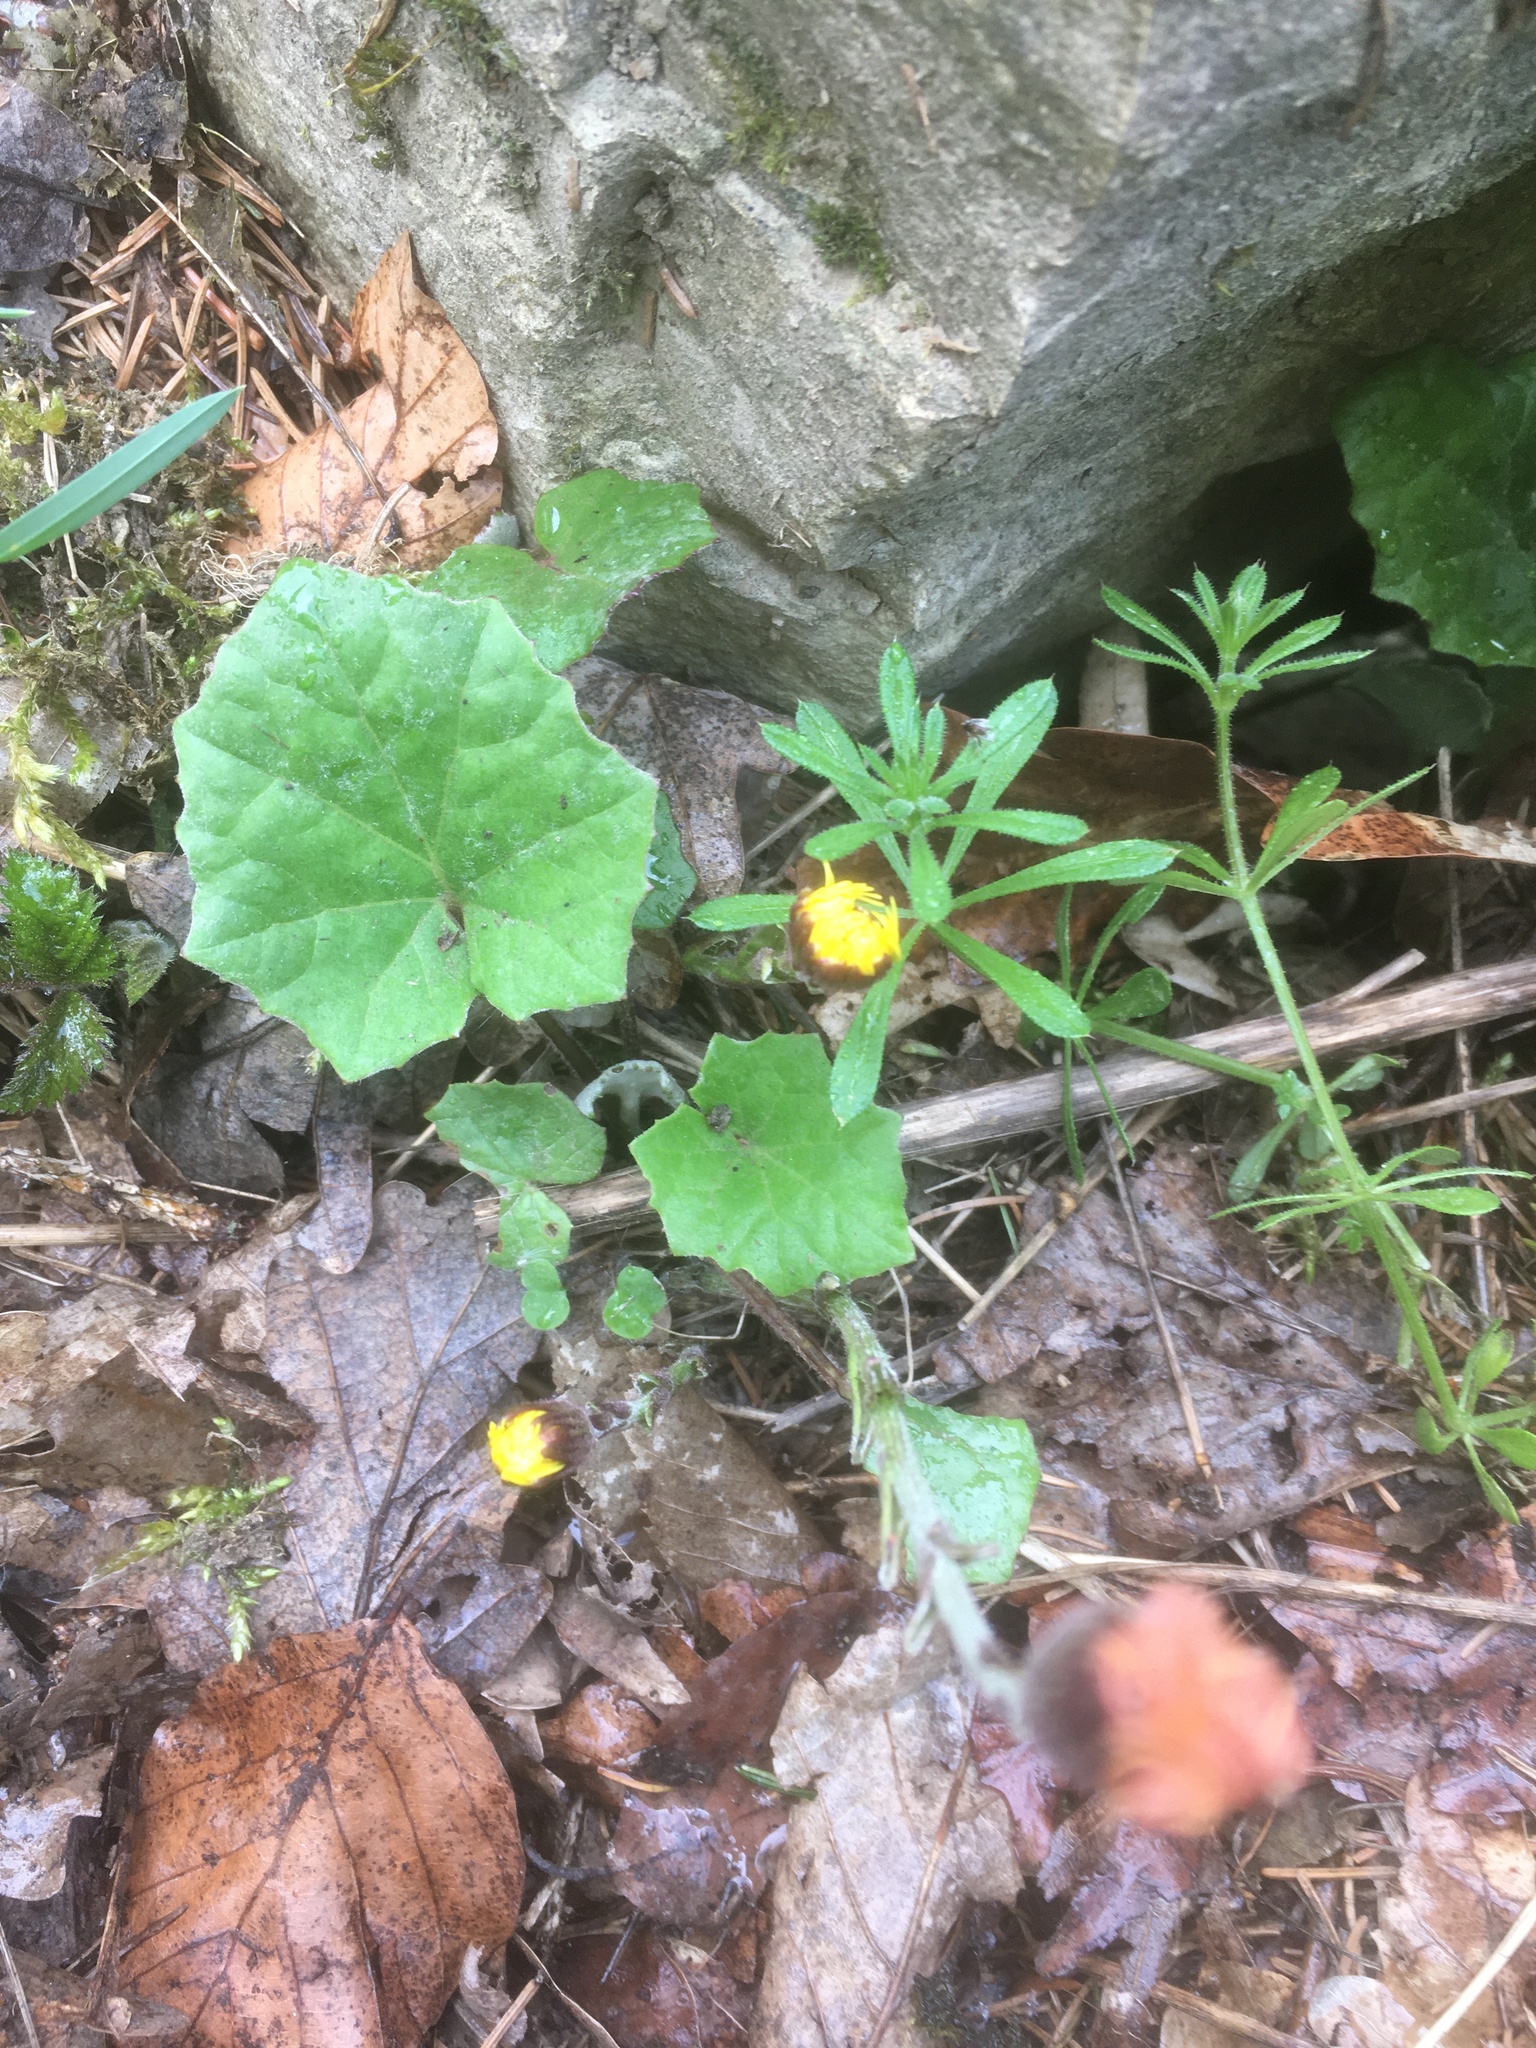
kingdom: Plantae
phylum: Tracheophyta
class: Magnoliopsida
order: Asterales
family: Asteraceae
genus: Tussilago
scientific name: Tussilago farfara
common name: Coltsfoot
